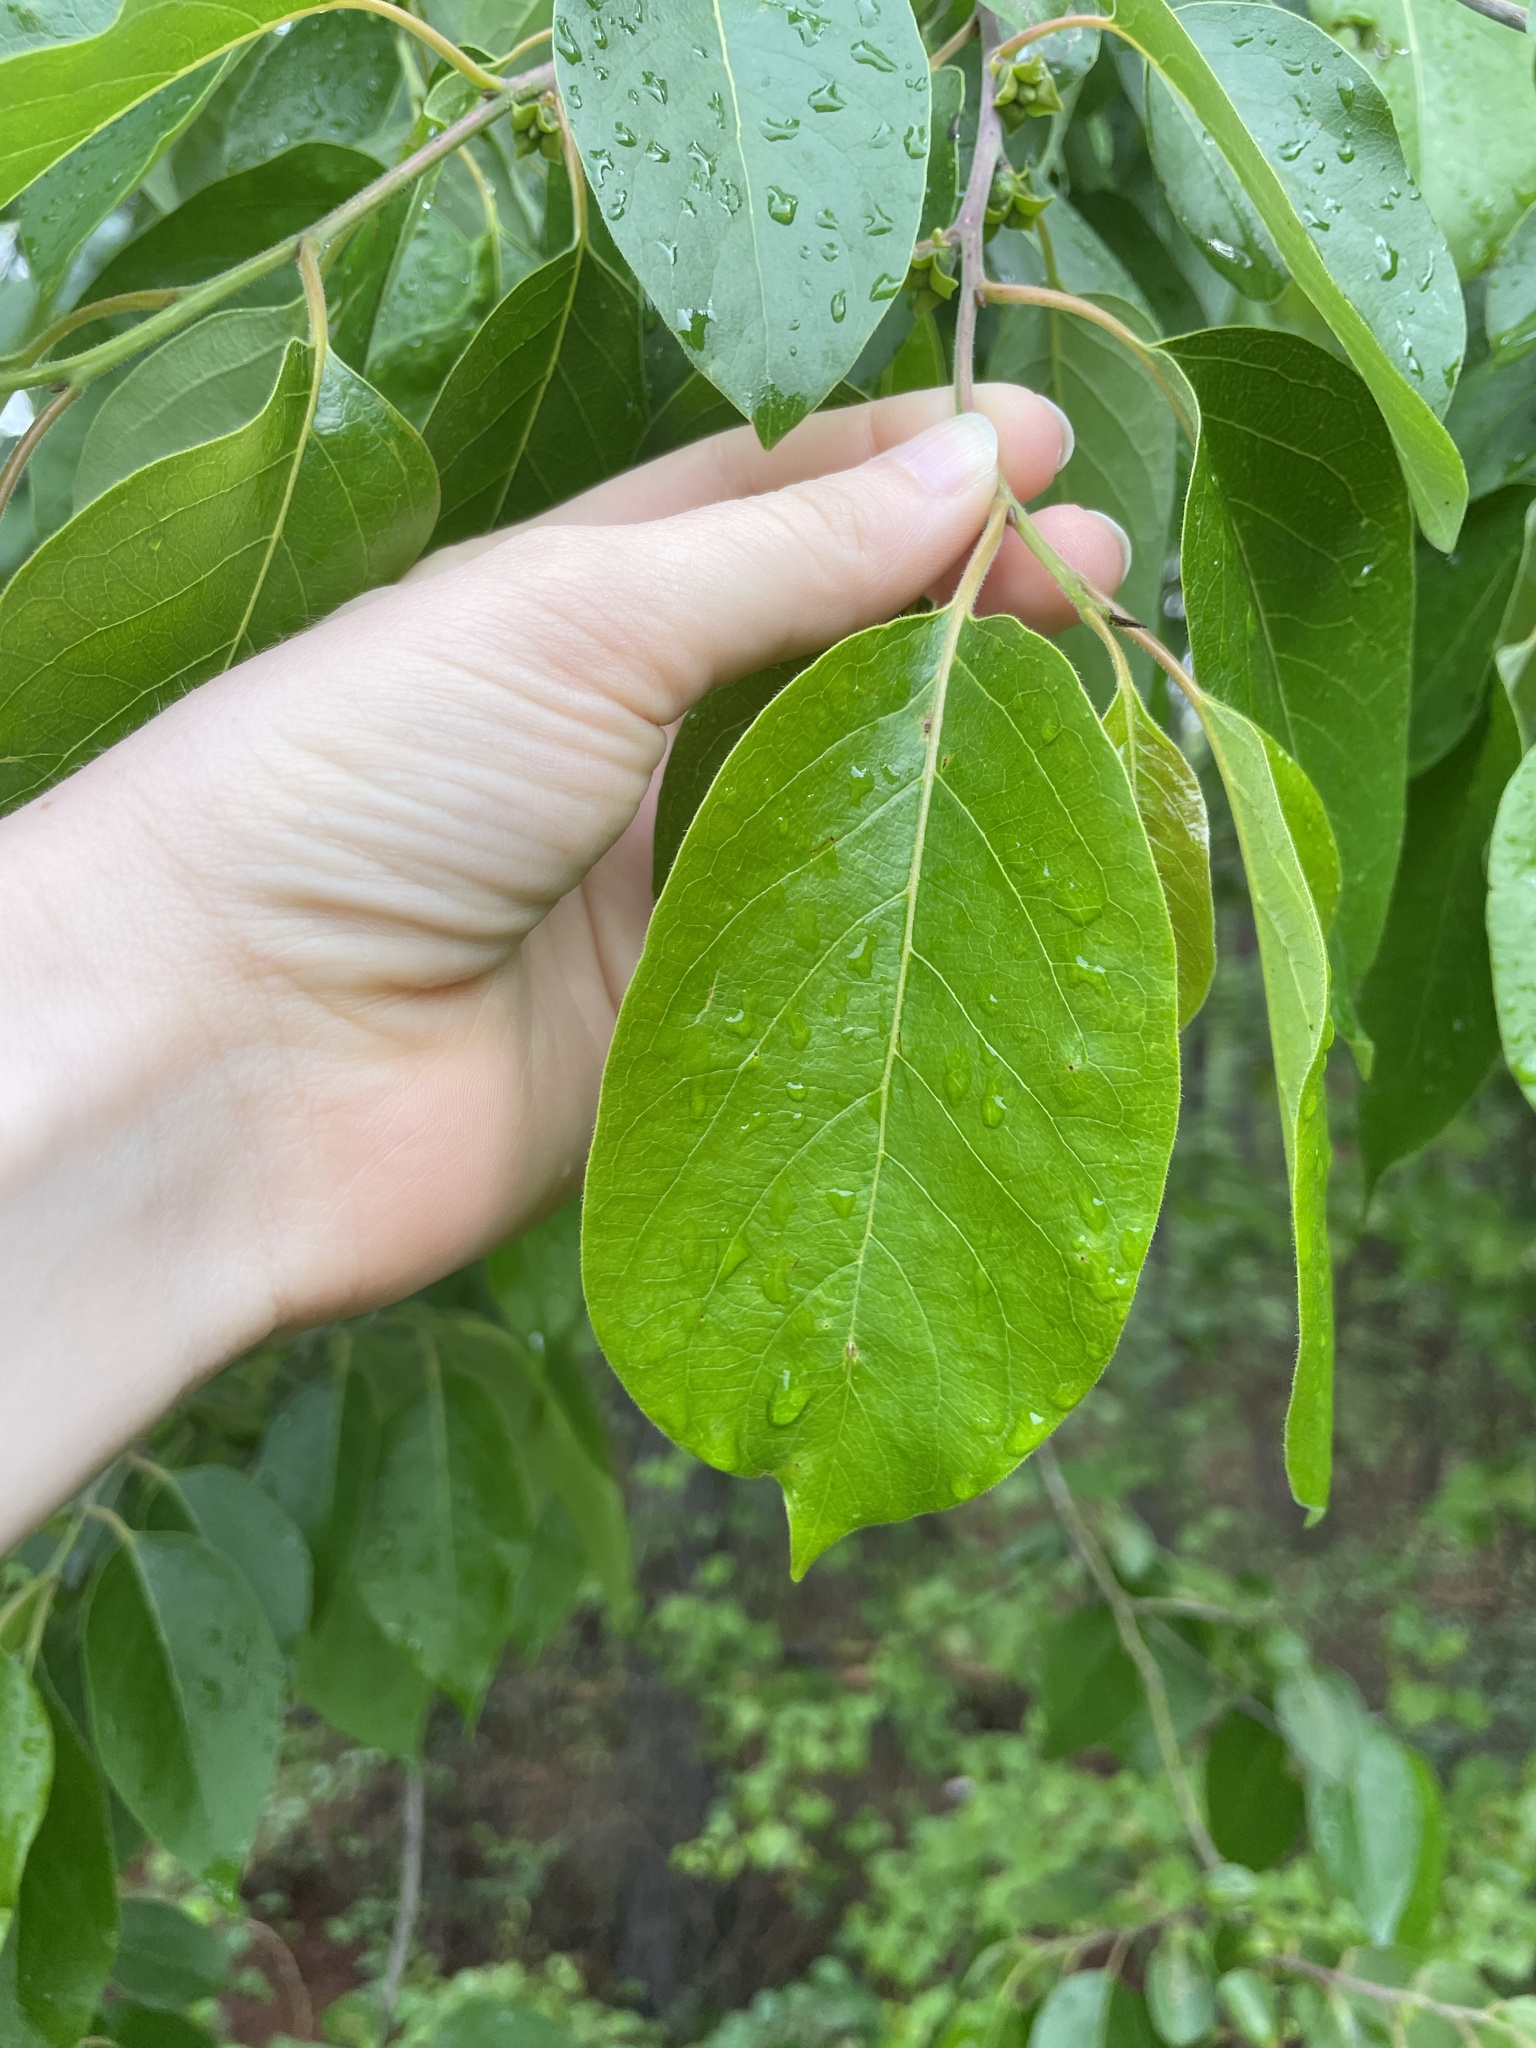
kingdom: Plantae
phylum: Tracheophyta
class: Magnoliopsida
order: Ericales
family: Ebenaceae
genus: Diospyros
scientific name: Diospyros virginiana
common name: Persimmon
